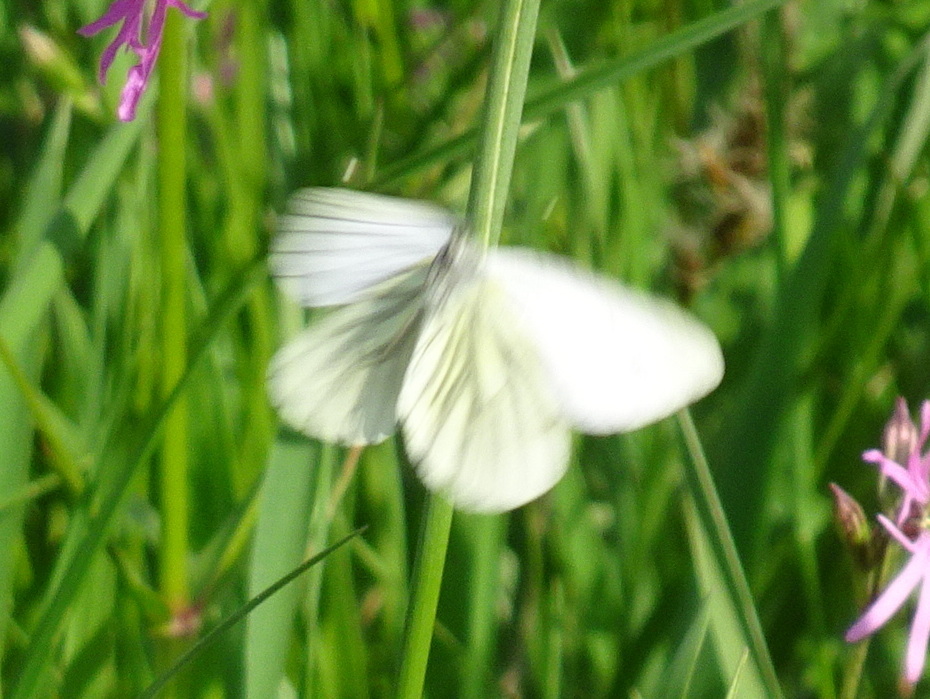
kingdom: Animalia
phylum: Arthropoda
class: Insecta
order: Lepidoptera
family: Pieridae
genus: Pieris
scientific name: Pieris napi
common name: Green-veined white
